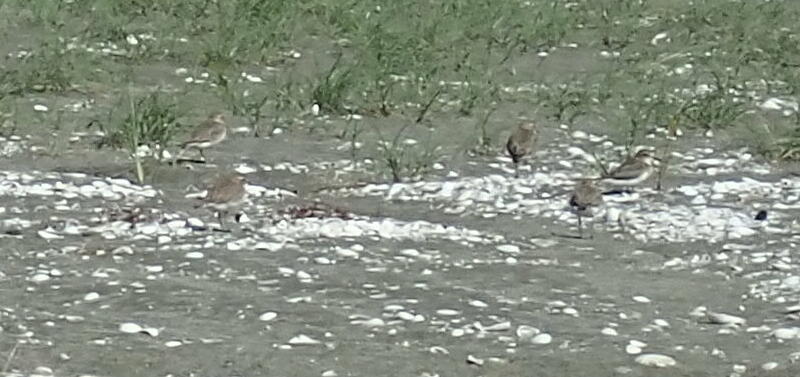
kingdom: Animalia
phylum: Chordata
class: Aves
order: Charadriiformes
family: Charadriidae
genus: Anarhynchus
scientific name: Anarhynchus
